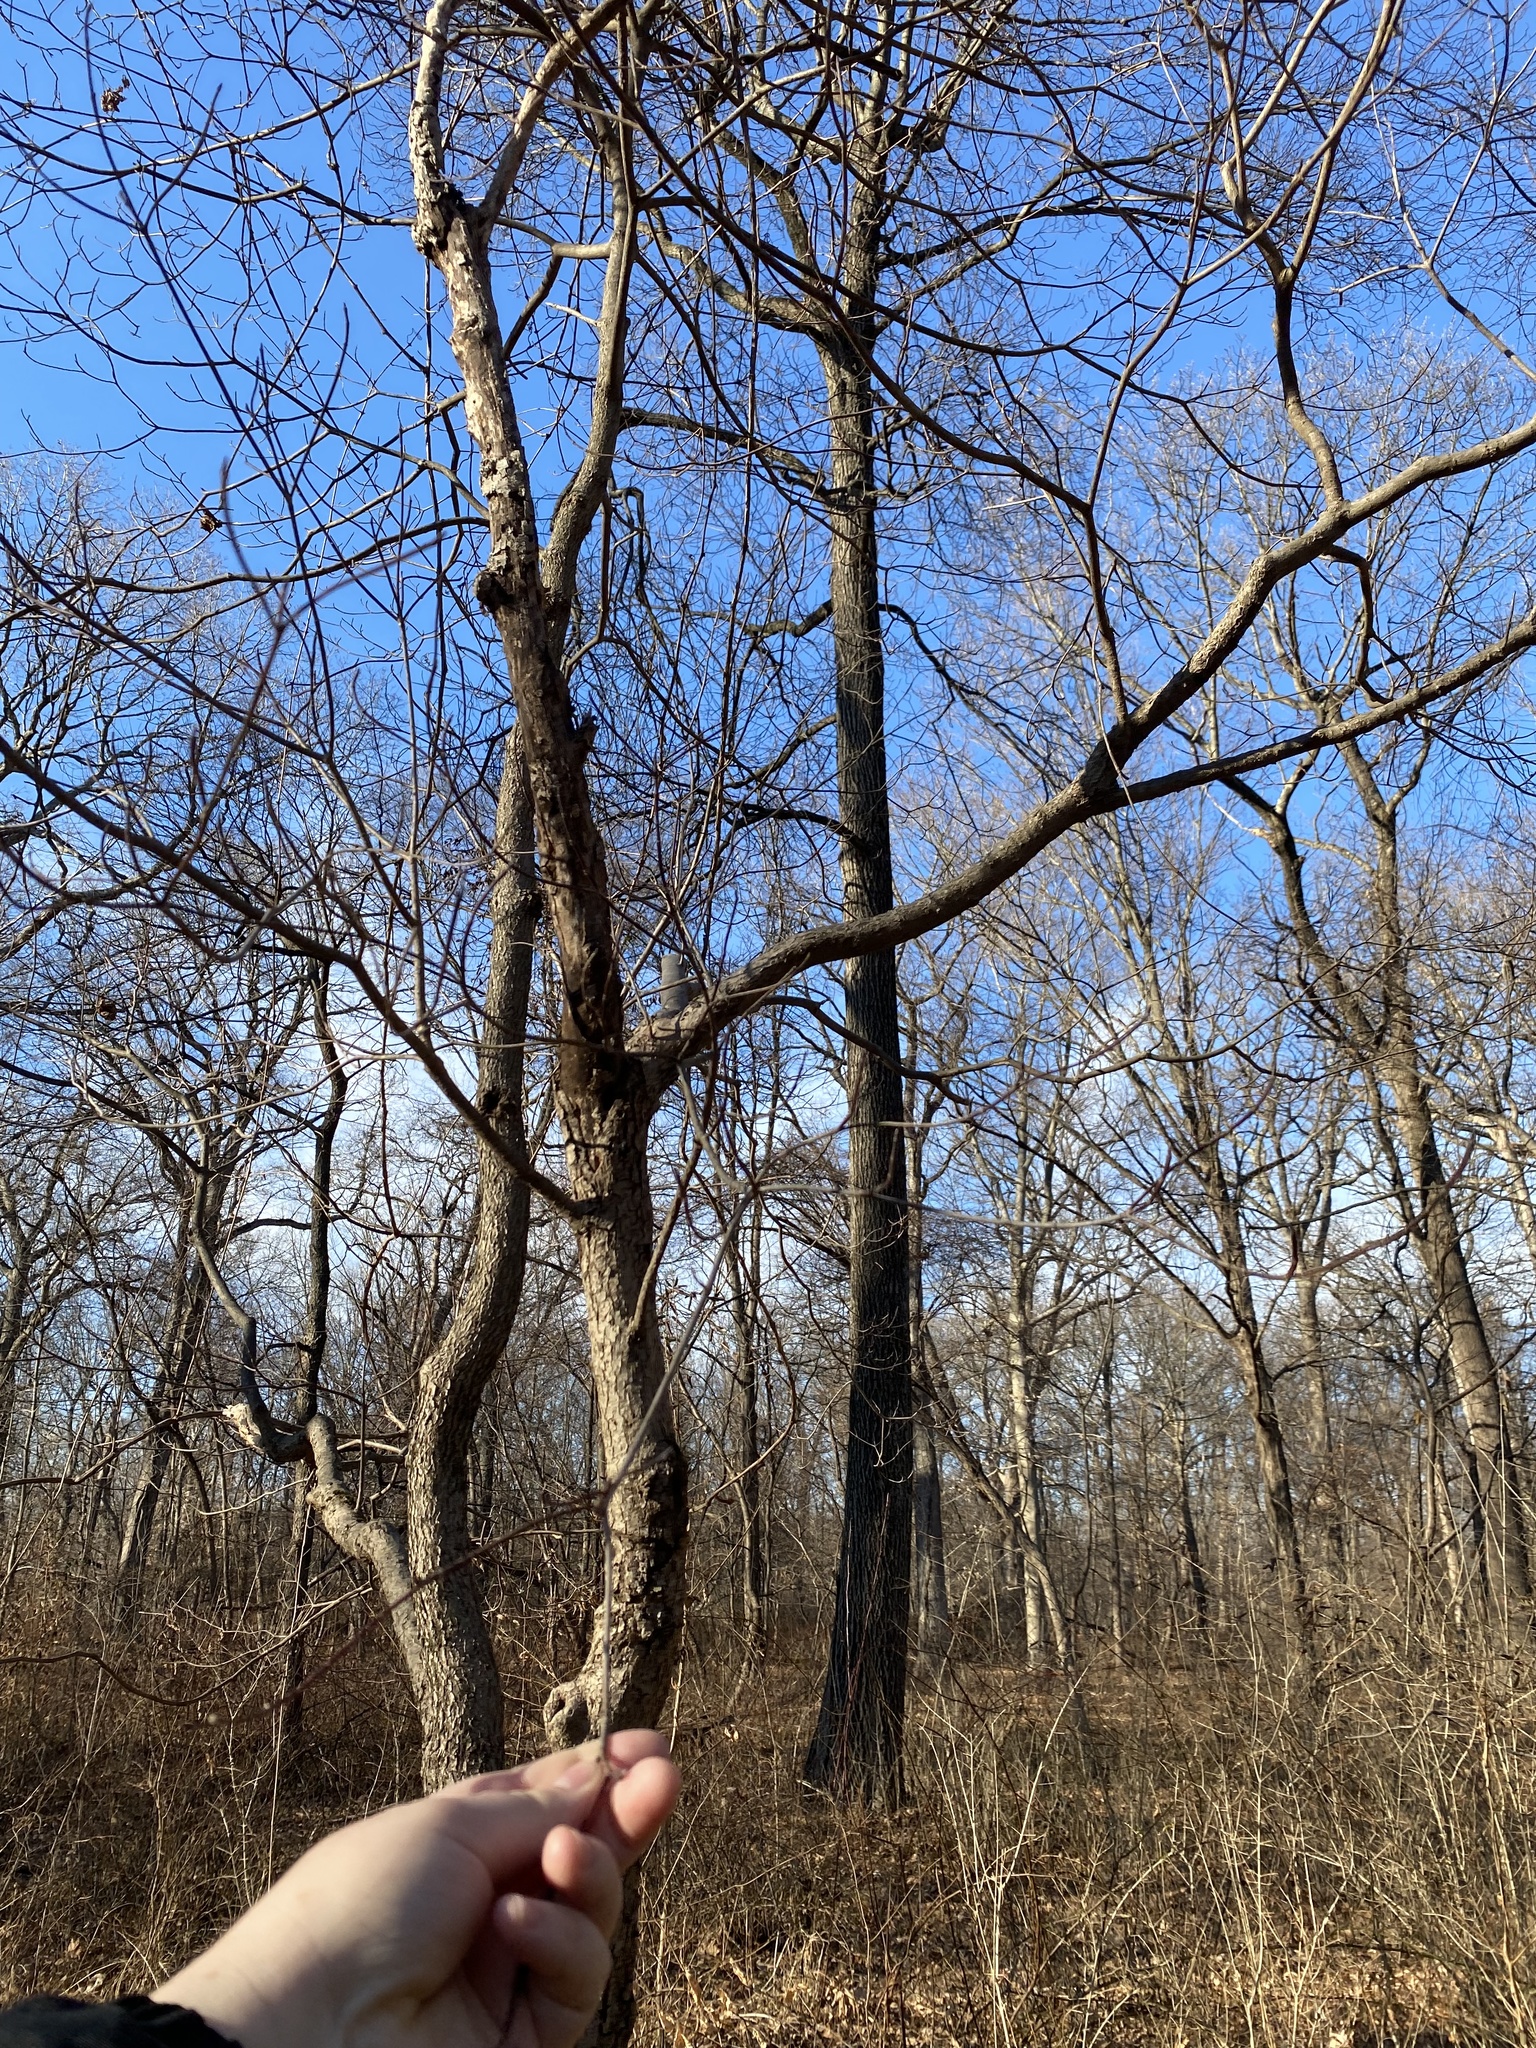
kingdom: Plantae
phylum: Tracheophyta
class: Magnoliopsida
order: Cornales
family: Cornaceae
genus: Cornus
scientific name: Cornus florida
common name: Flowering dogwood
